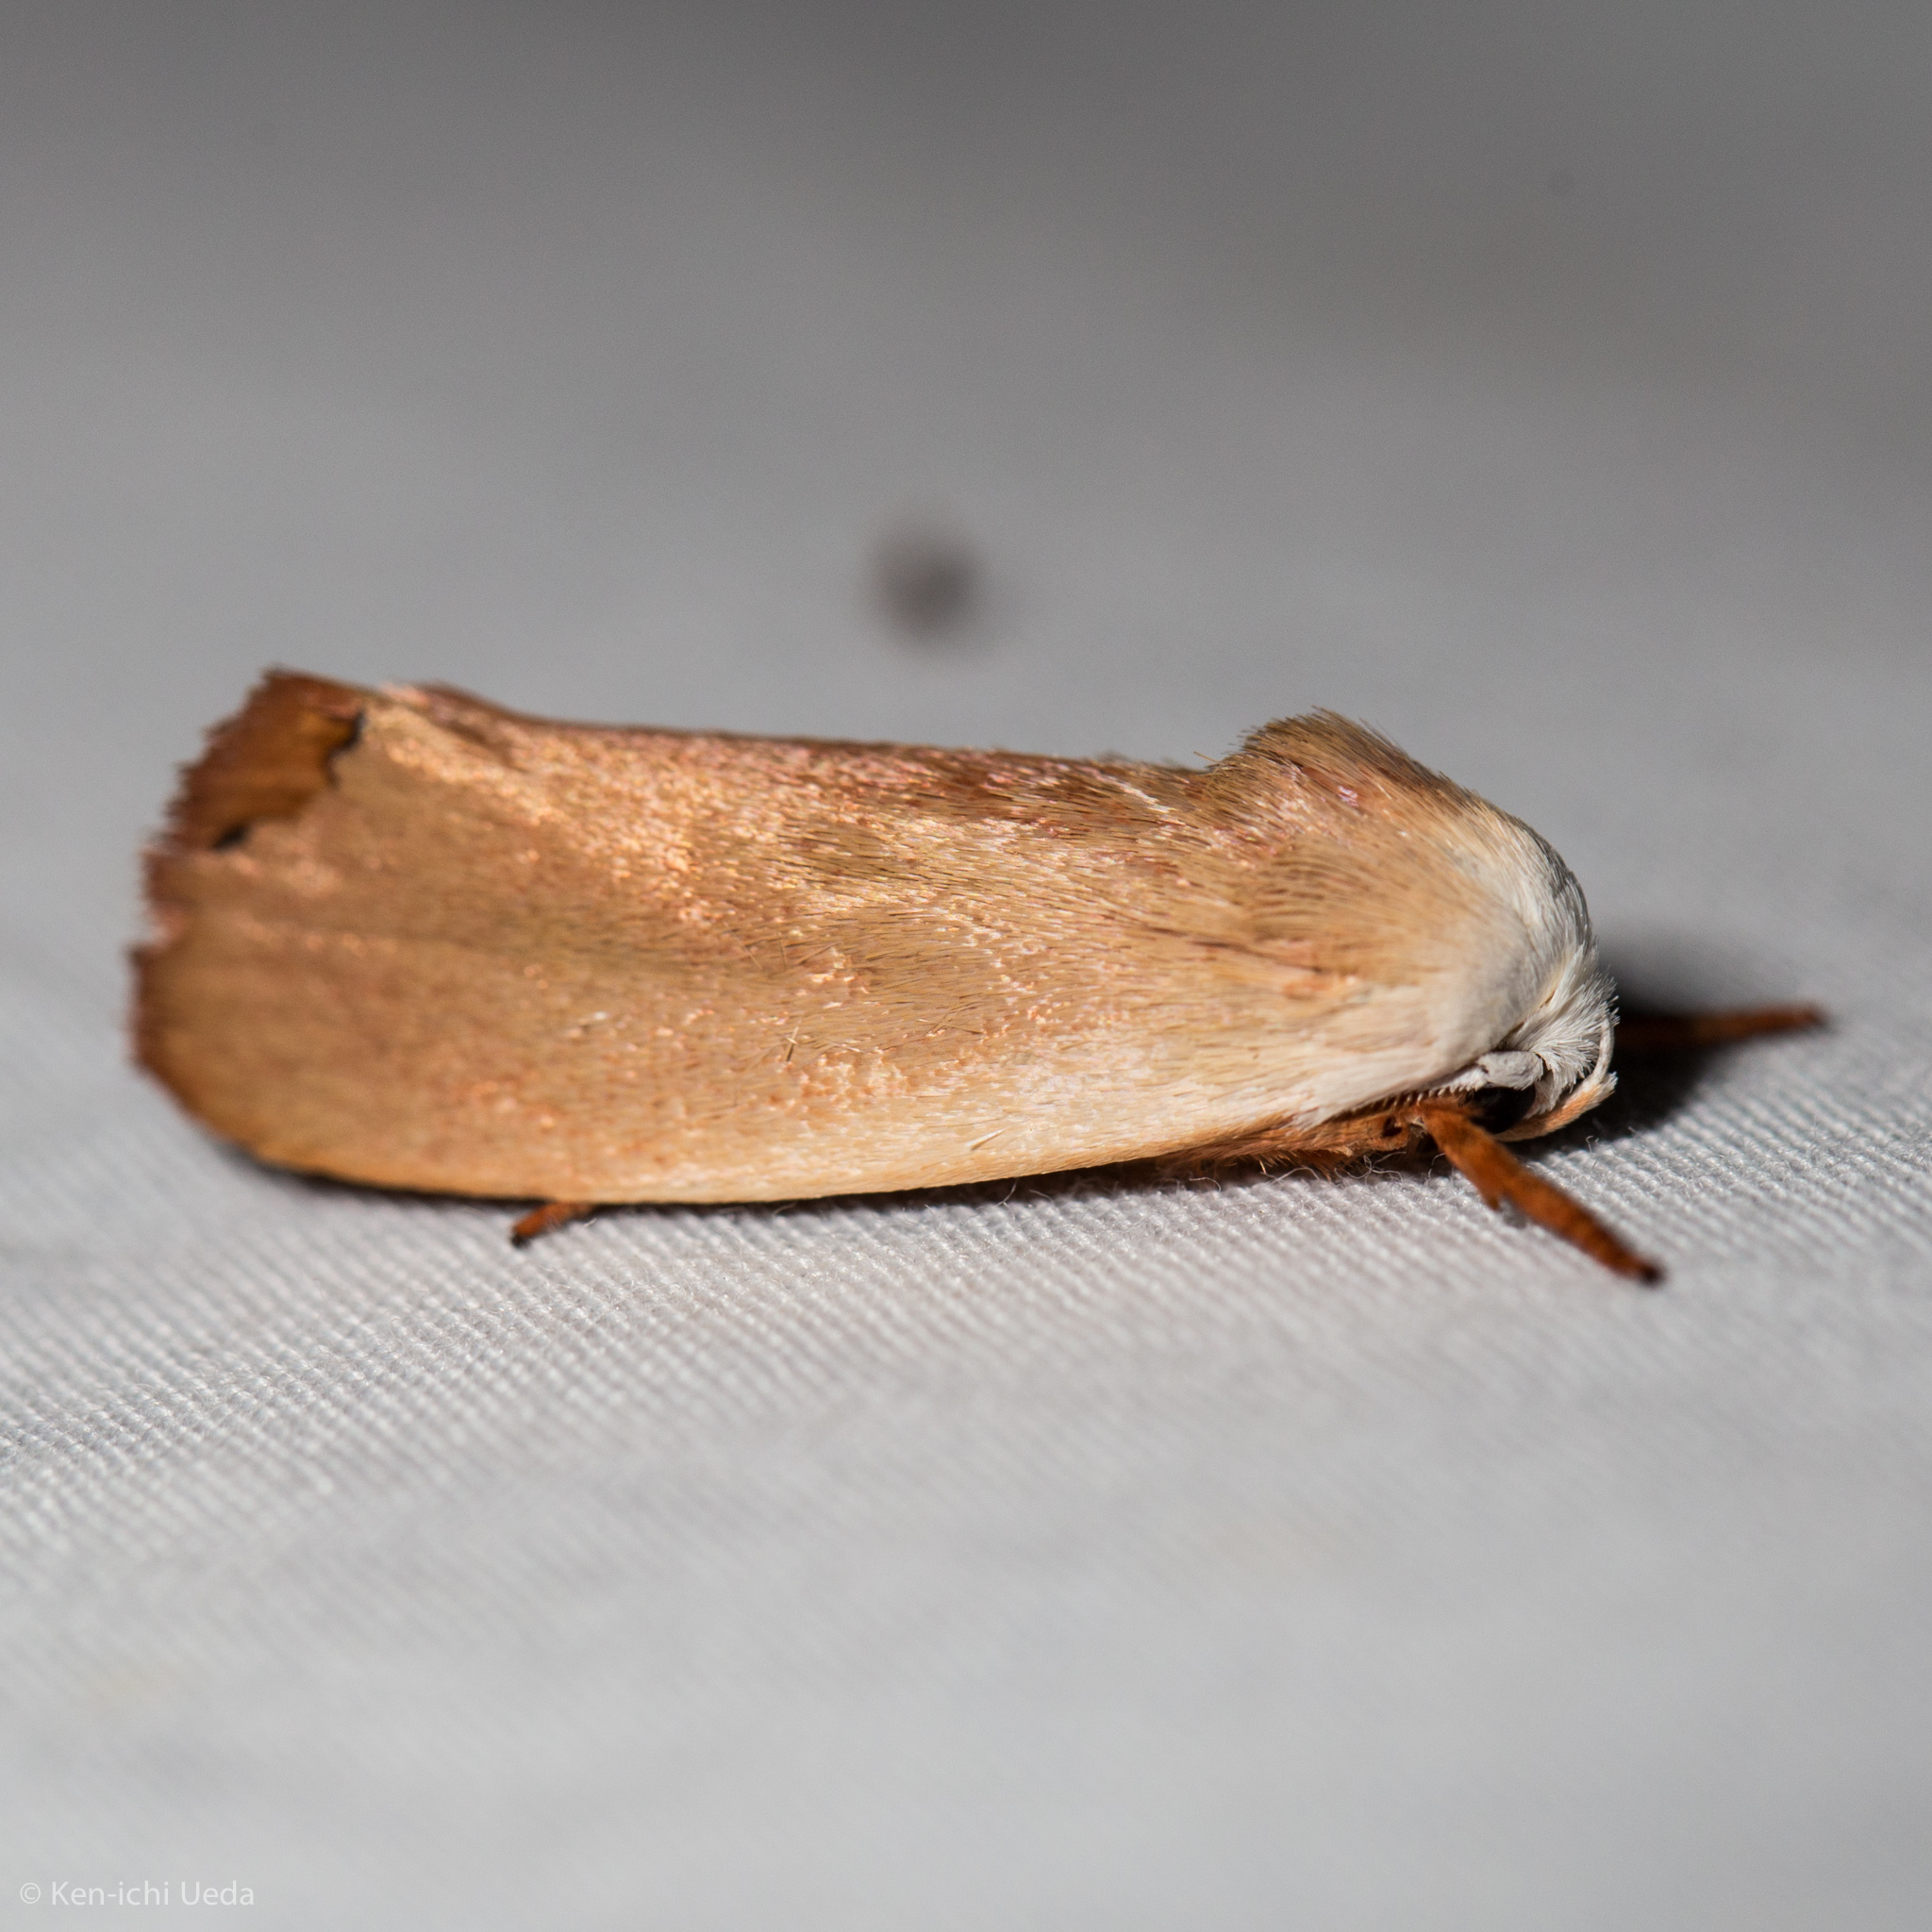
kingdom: Animalia
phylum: Arthropoda
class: Insecta
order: Lepidoptera
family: Xyloryctidae
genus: Cryptophasa
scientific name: Cryptophasa rubescens
